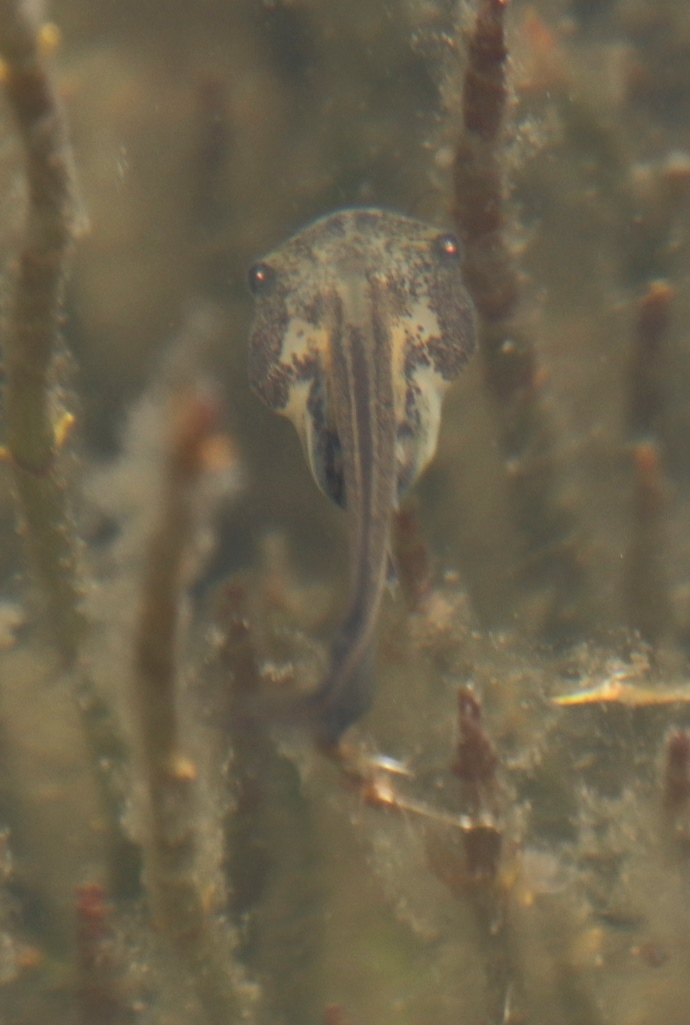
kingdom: Animalia
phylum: Chordata
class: Amphibia
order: Anura
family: Pipidae
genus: Xenopus
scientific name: Xenopus laevis
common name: African clawed frog
